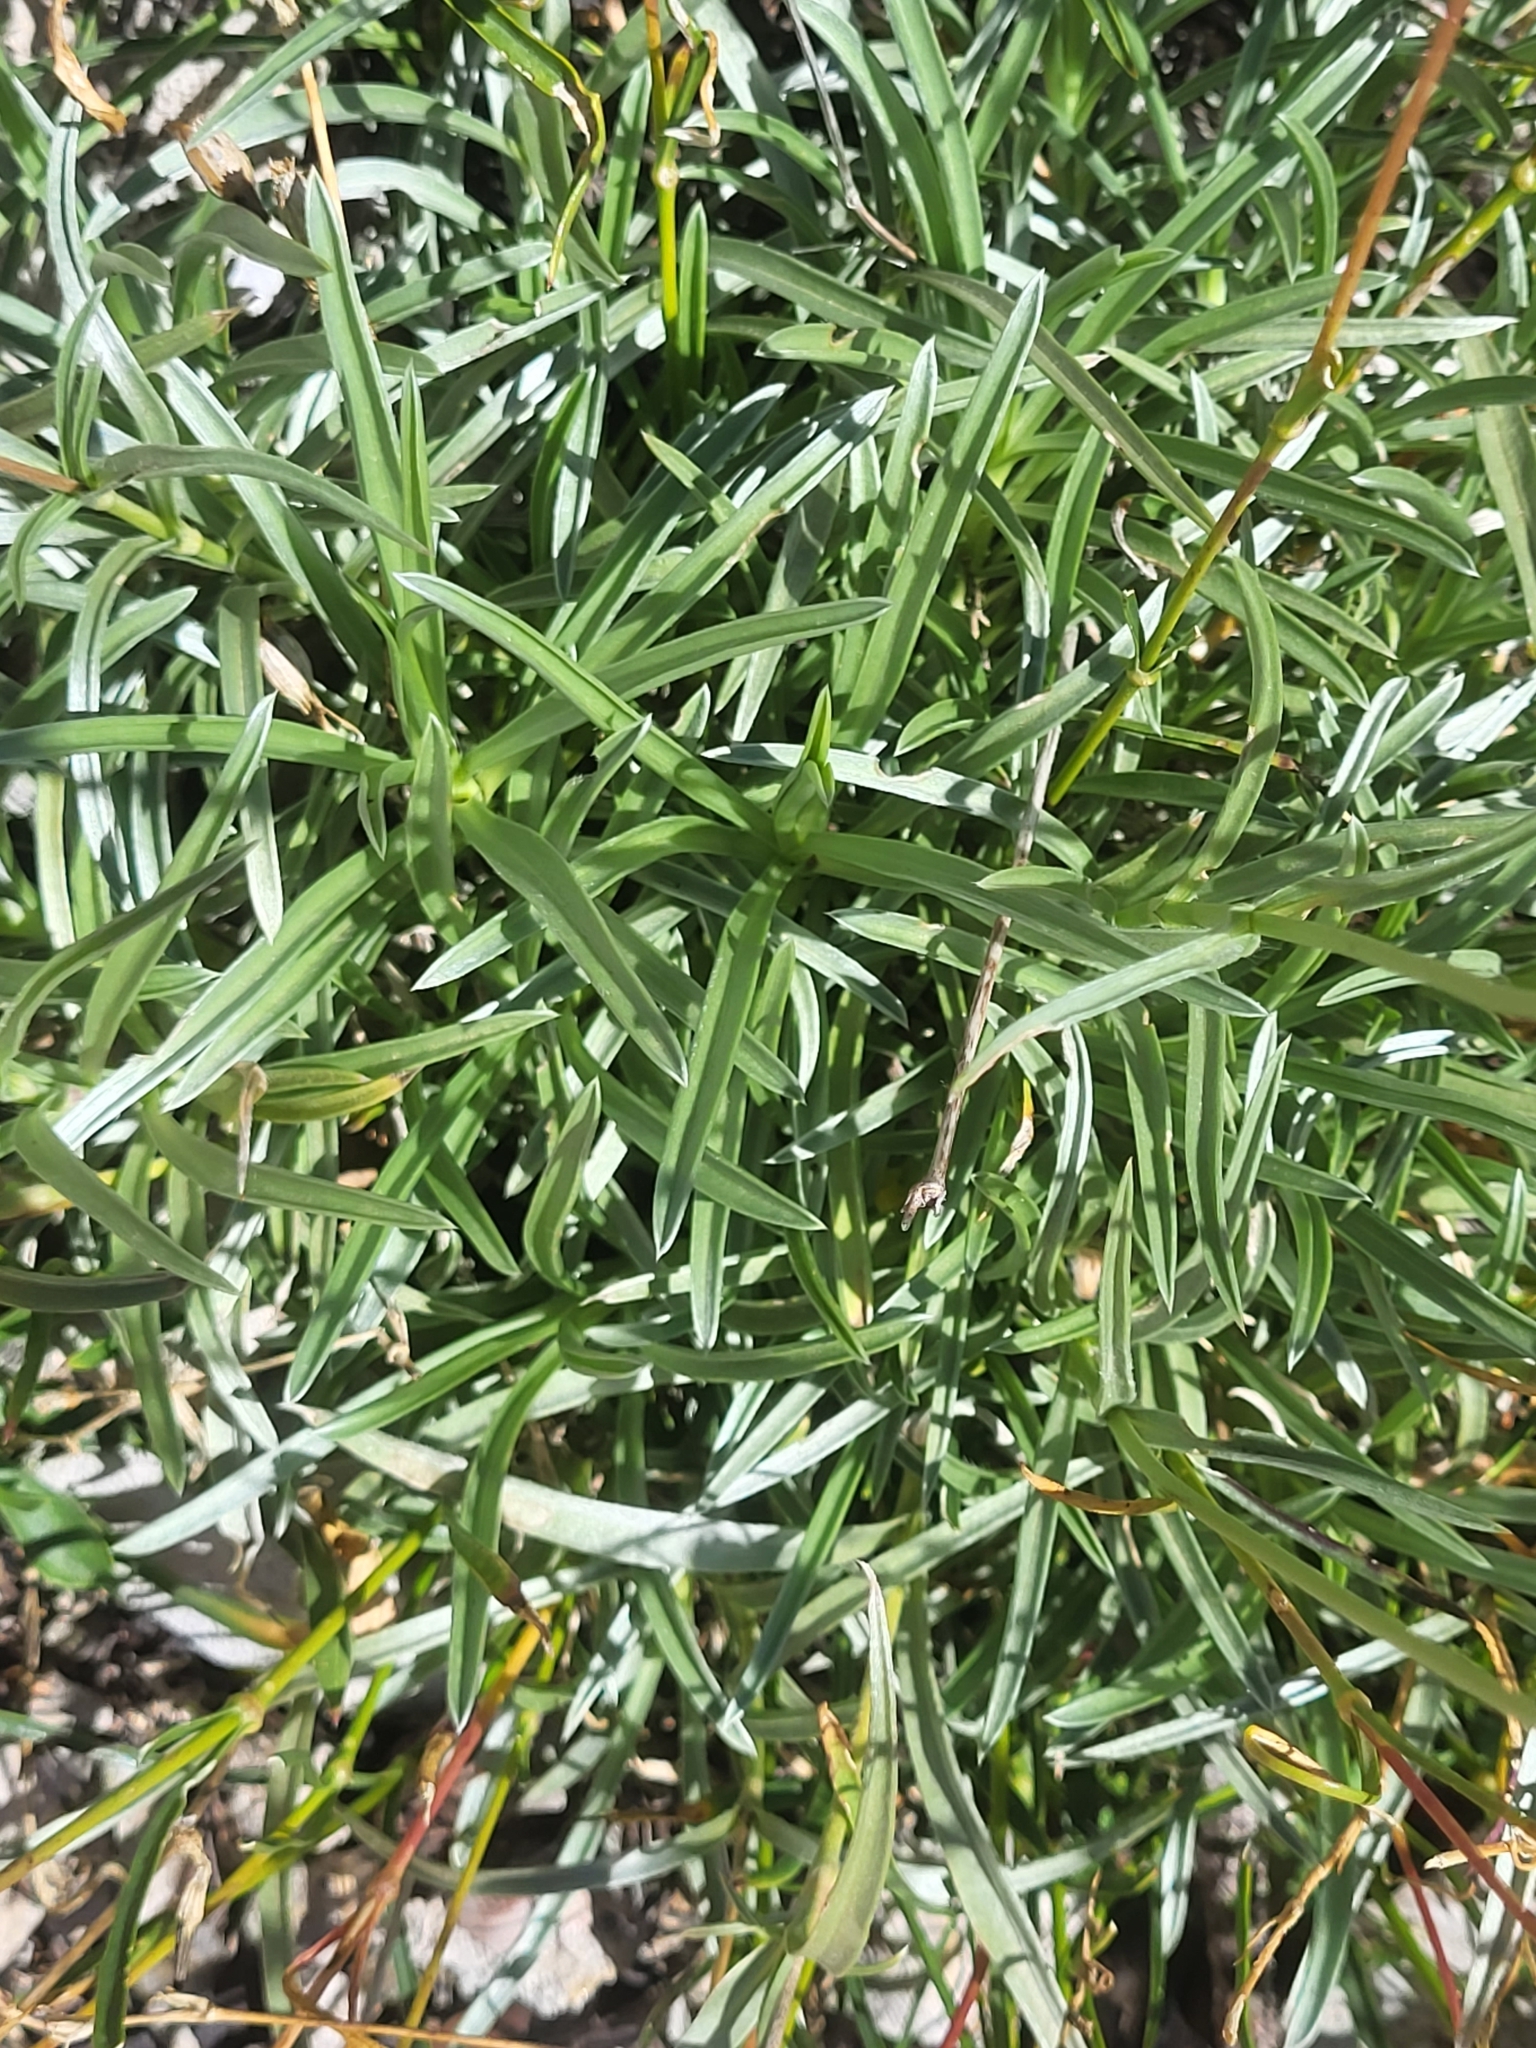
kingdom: Plantae
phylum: Tracheophyta
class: Magnoliopsida
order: Dipsacales
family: Caprifoliaceae
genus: Lomelosia
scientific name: Lomelosia graminifolia
